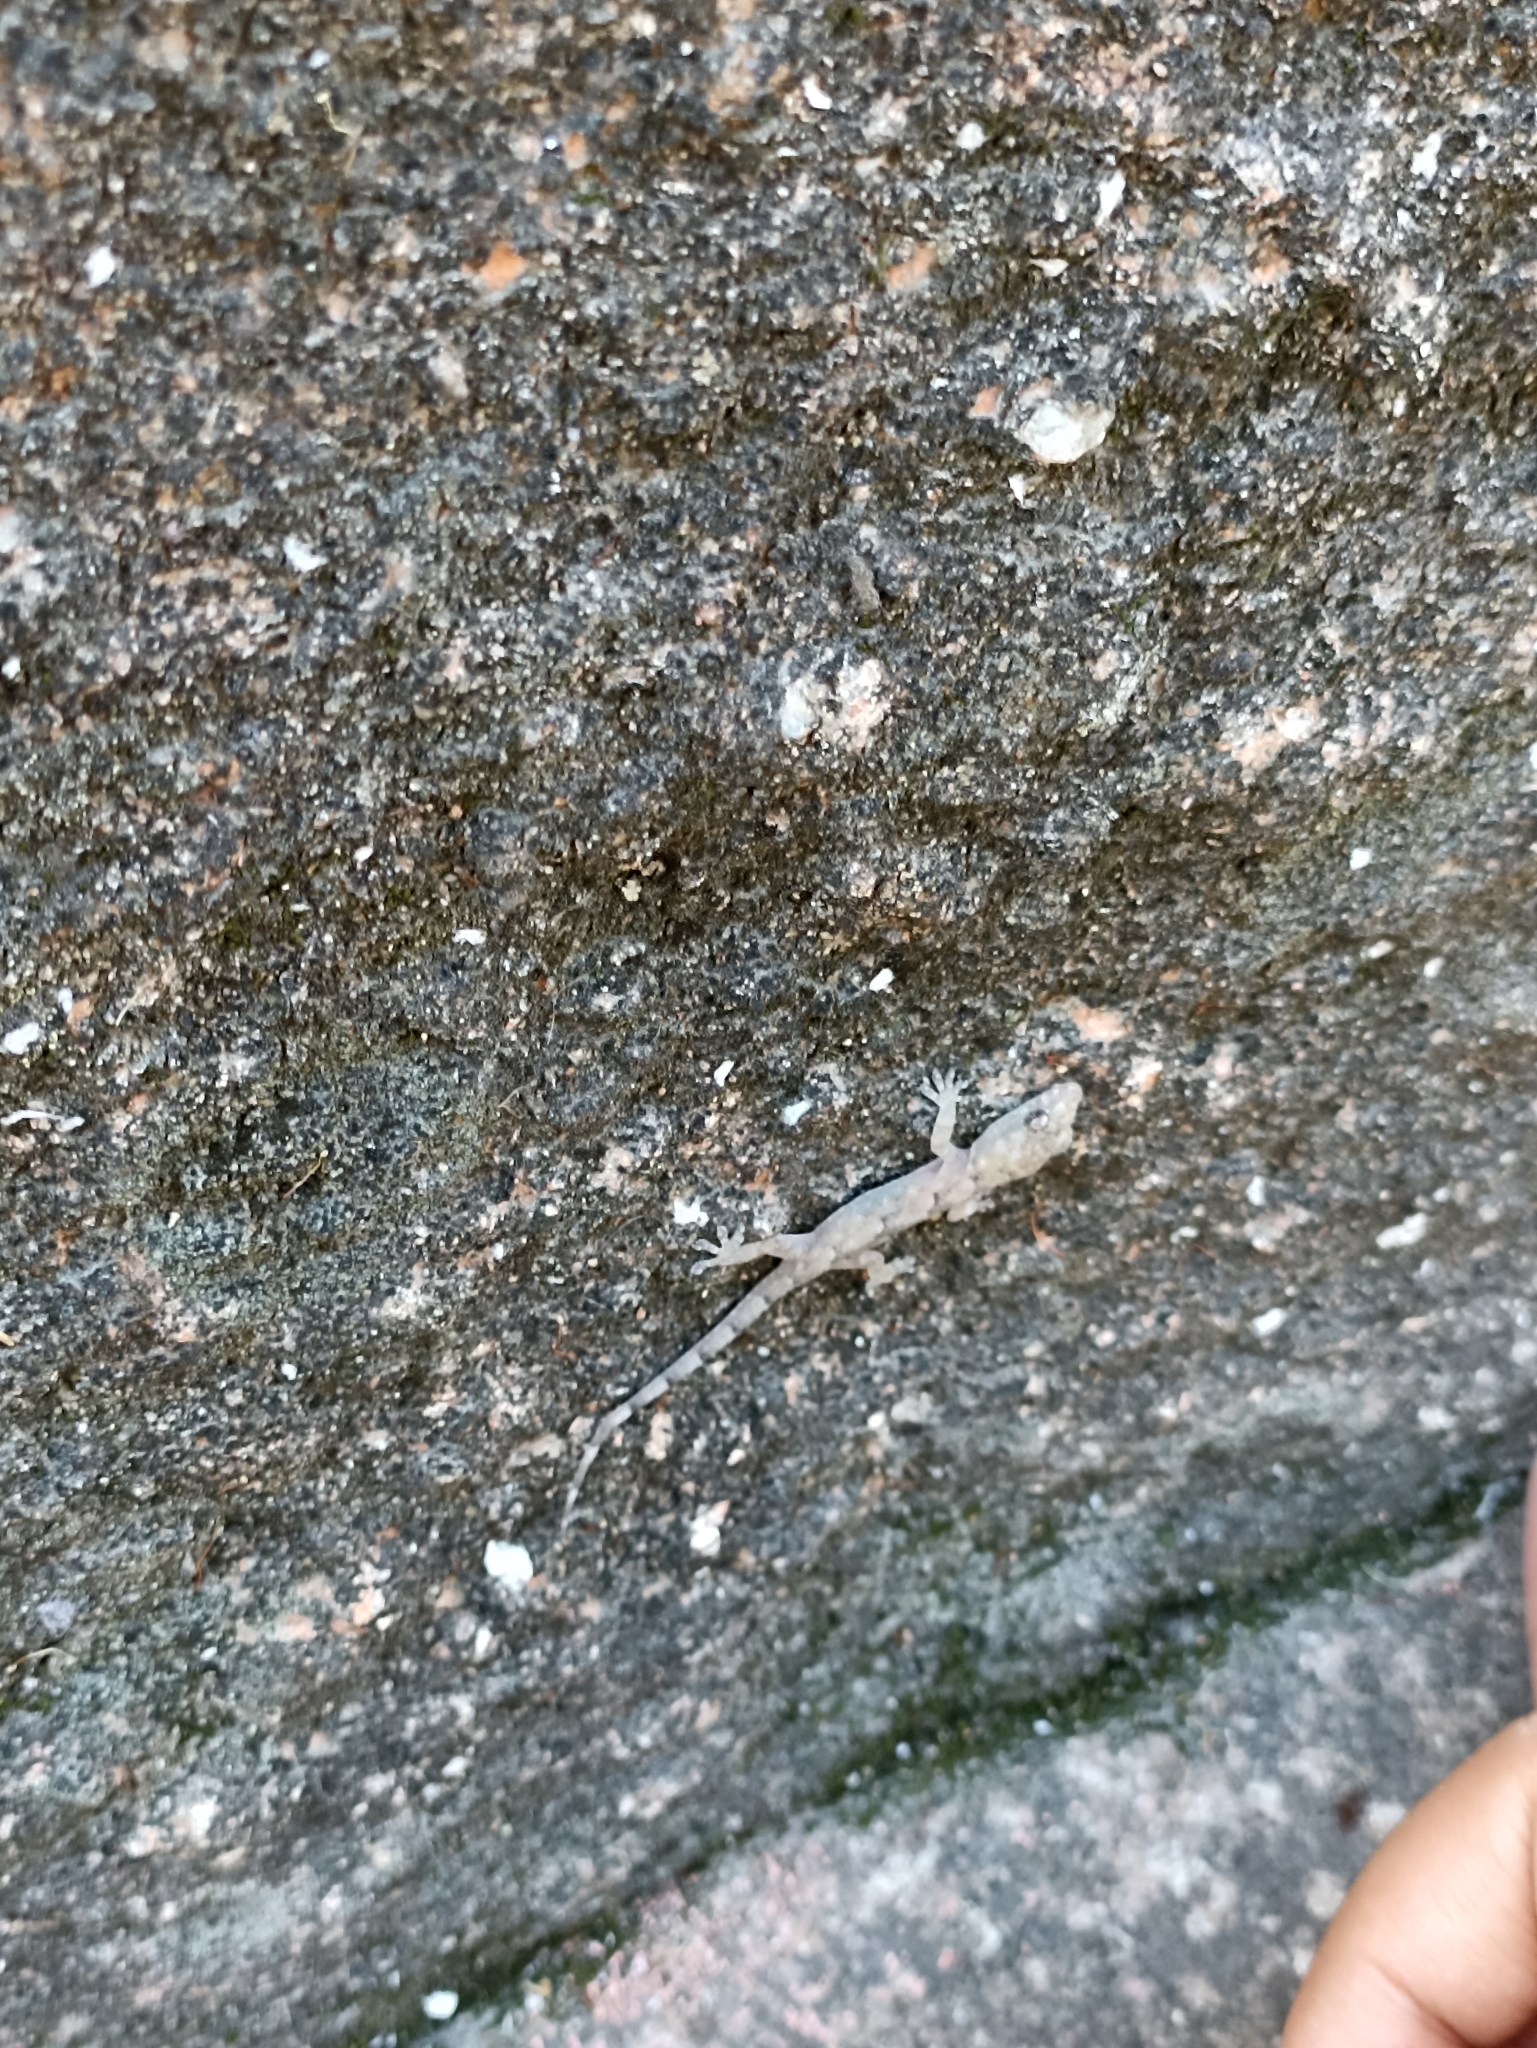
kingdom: Animalia
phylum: Chordata
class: Squamata
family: Gekkonidae
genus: Hemidactylus
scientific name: Hemidactylus mabouia
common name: House gecko
